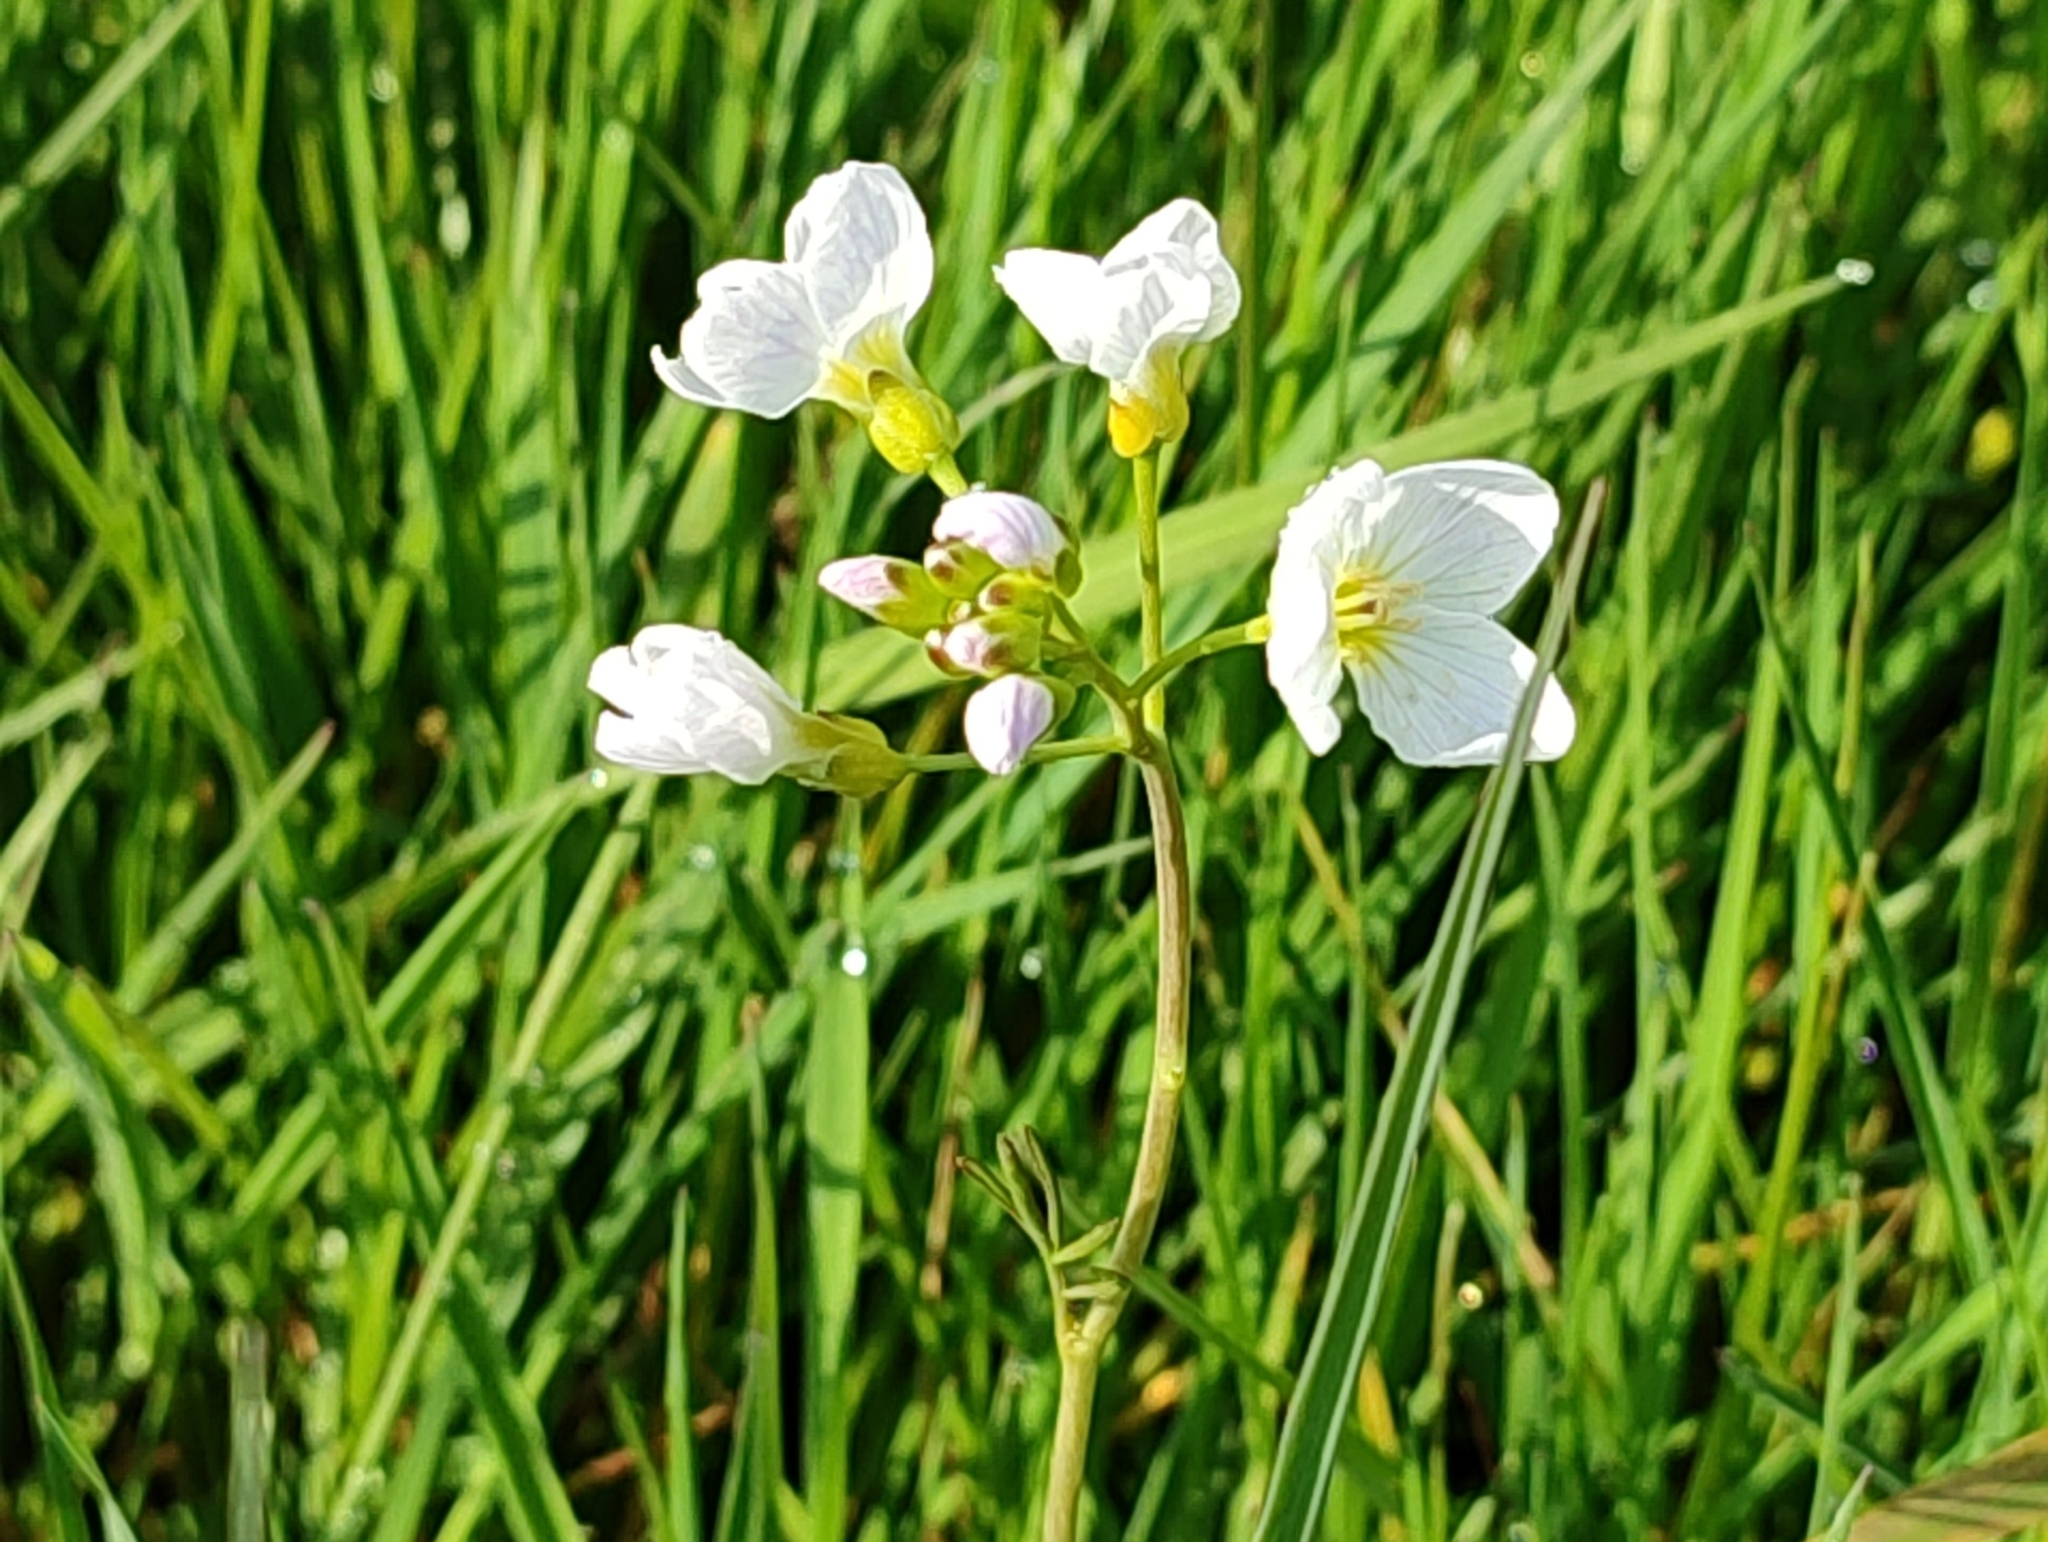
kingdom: Plantae
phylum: Tracheophyta
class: Magnoliopsida
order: Brassicales
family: Brassicaceae
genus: Cardamine
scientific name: Cardamine pratensis
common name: Cuckoo flower
